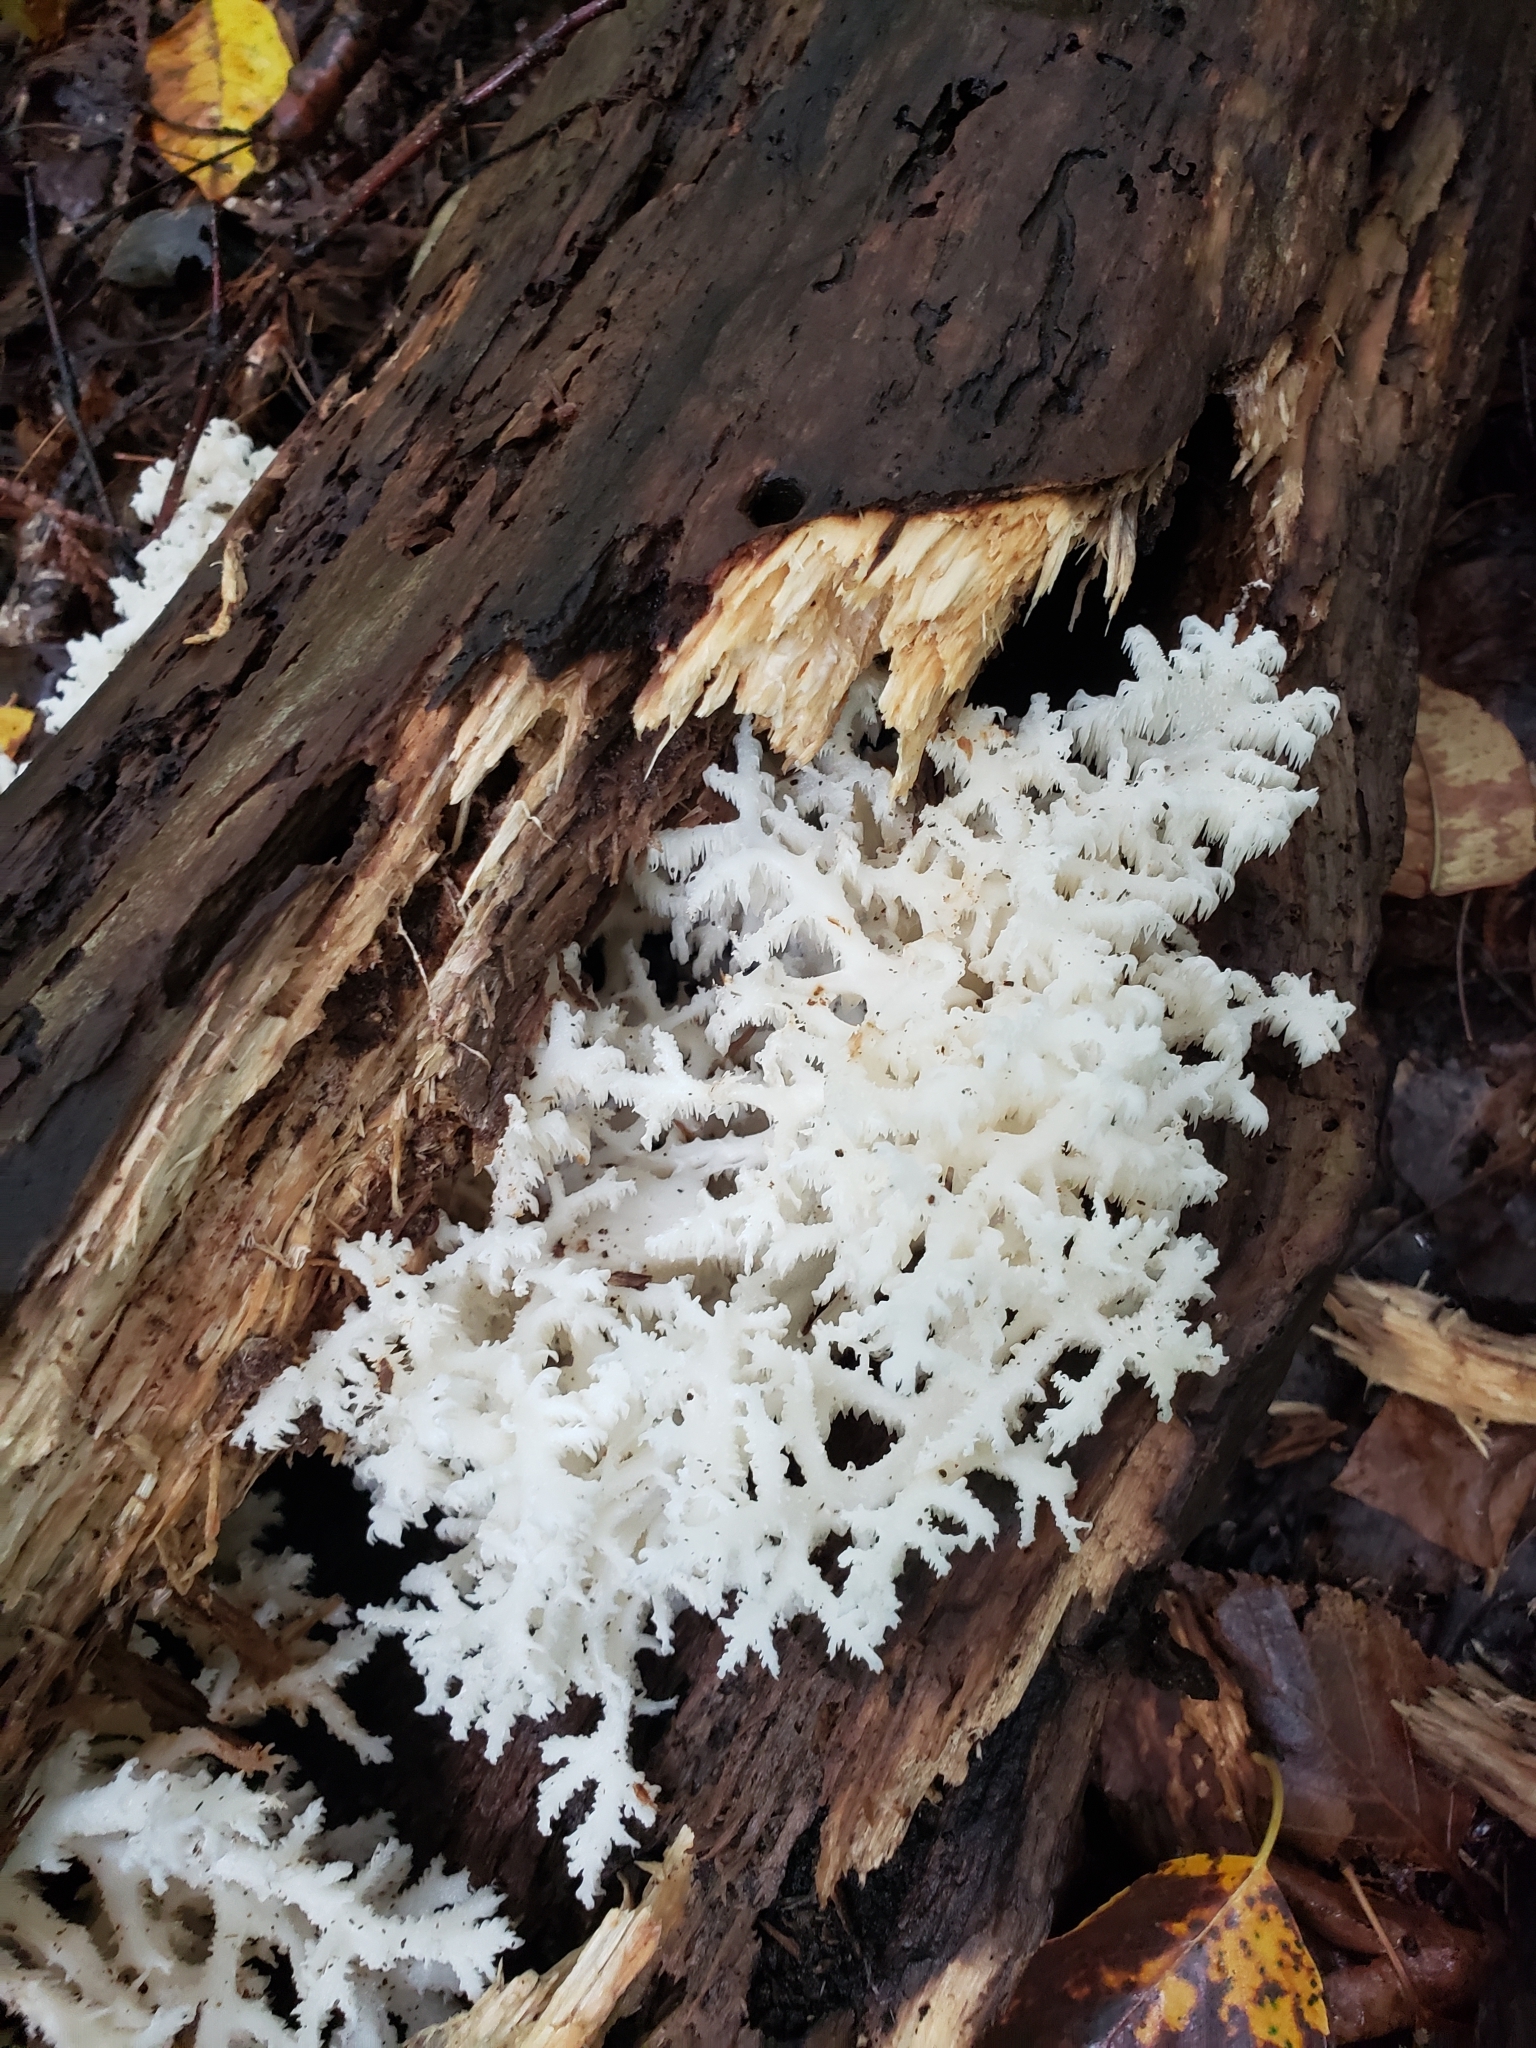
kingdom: Fungi
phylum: Basidiomycota
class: Agaricomycetes
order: Russulales
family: Hericiaceae
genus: Hericium
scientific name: Hericium coralloides
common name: Coral tooth
